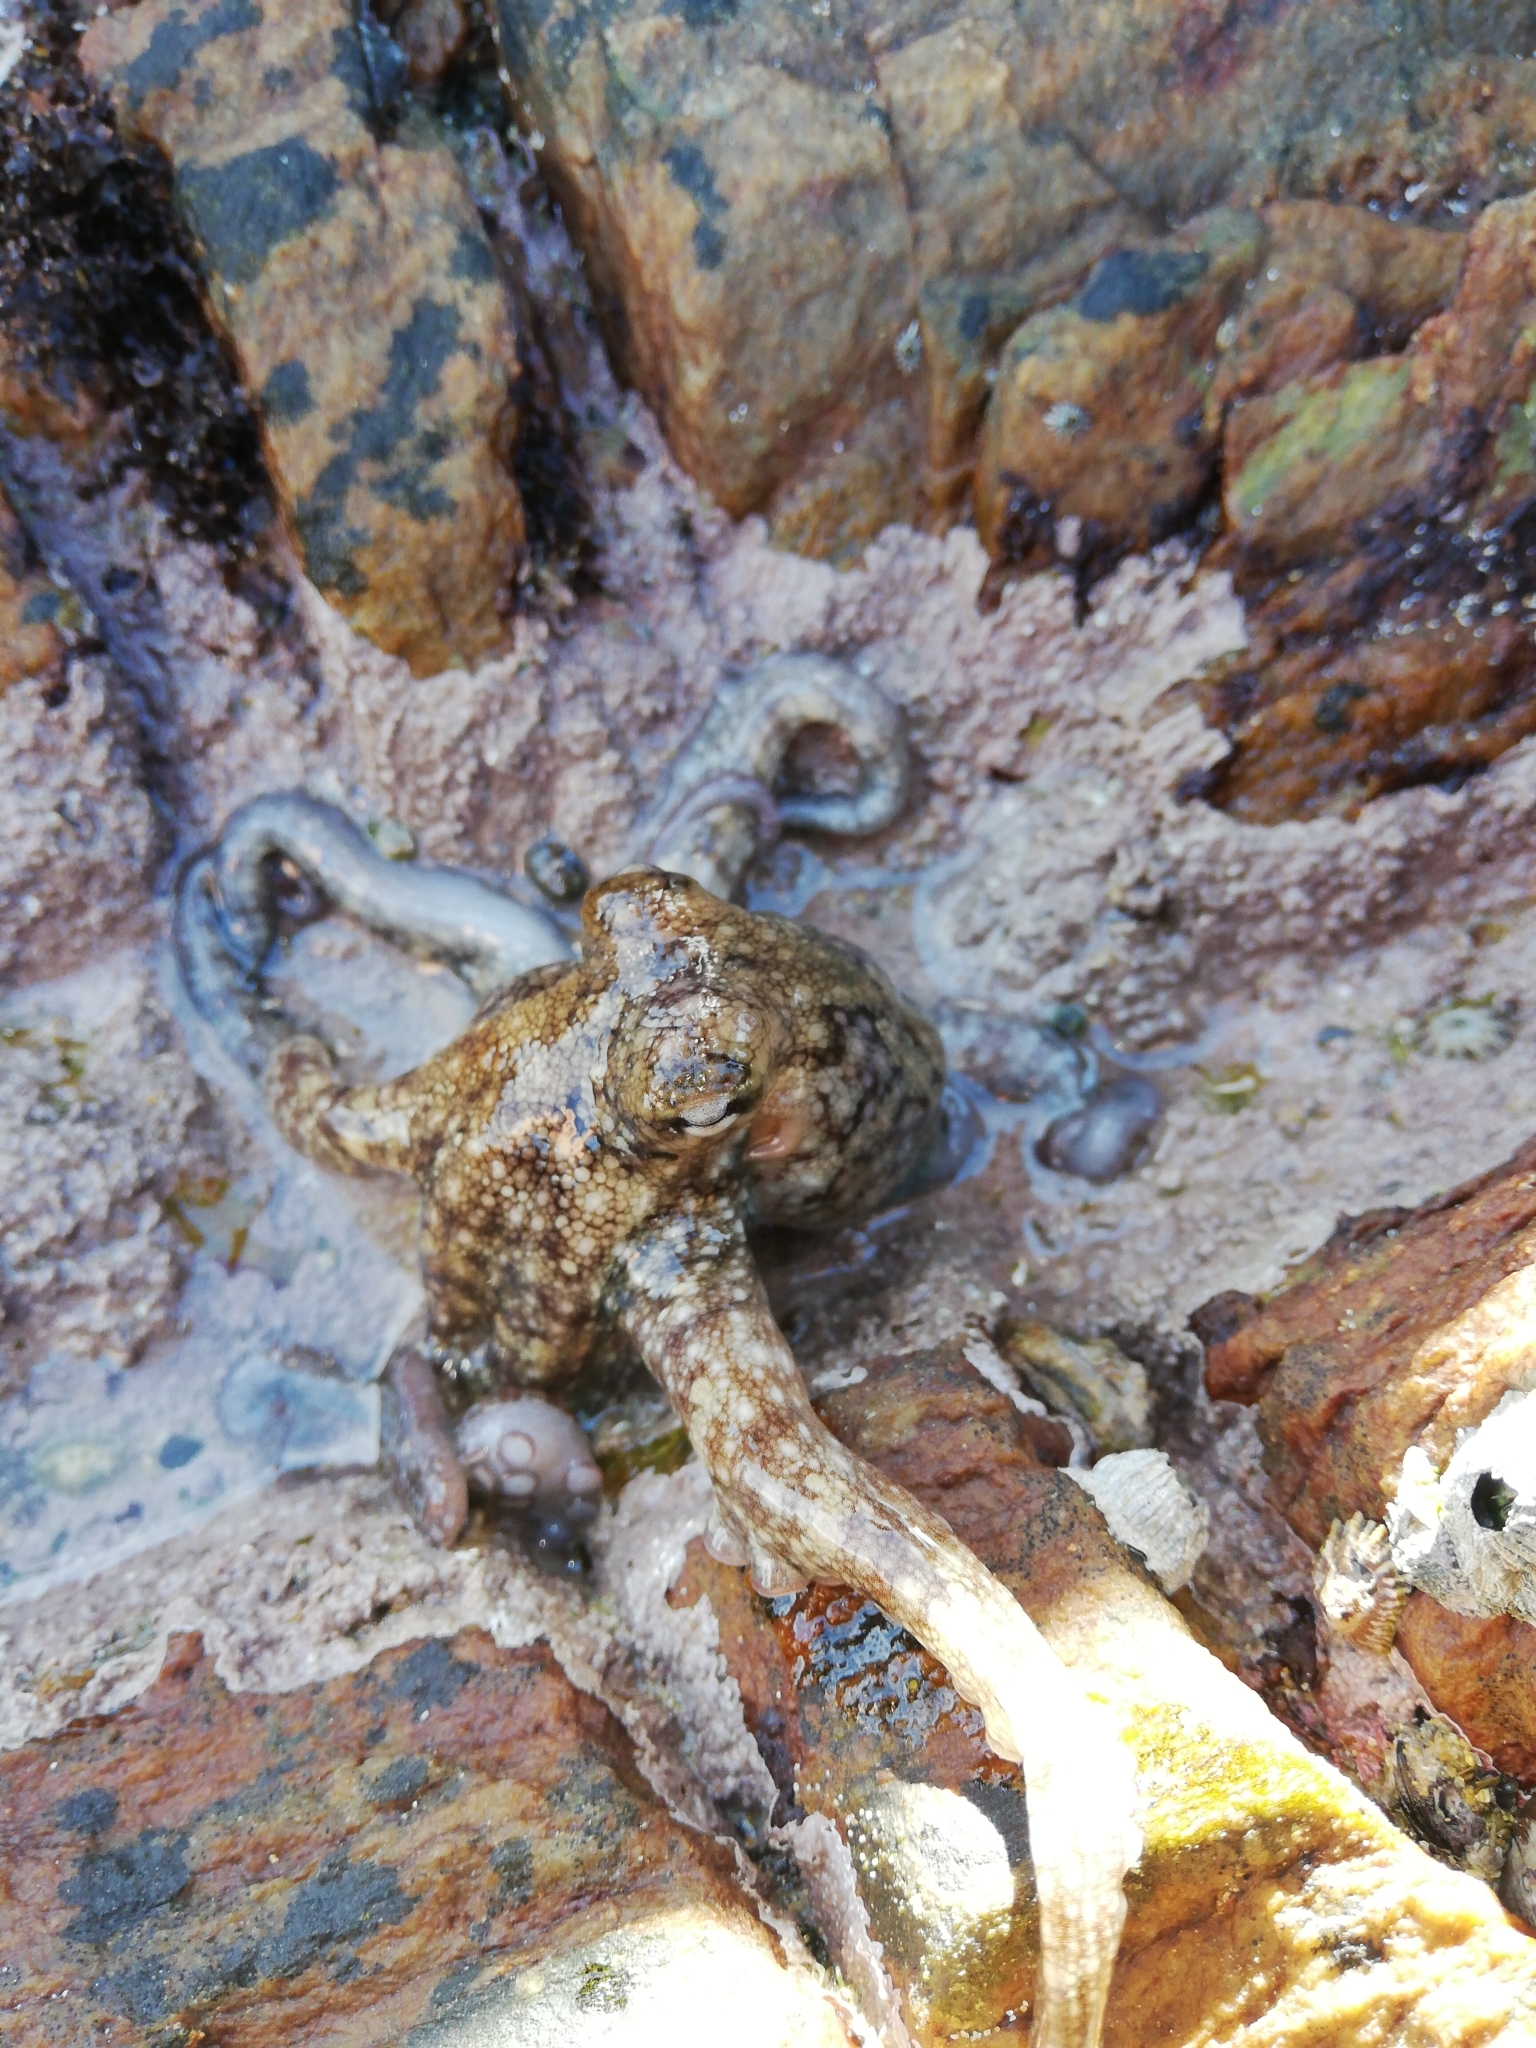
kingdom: Animalia
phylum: Mollusca
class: Cephalopoda
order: Octopoda
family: Octopodidae
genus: Octopus
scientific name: Octopus vulgaris
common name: Common octopus
